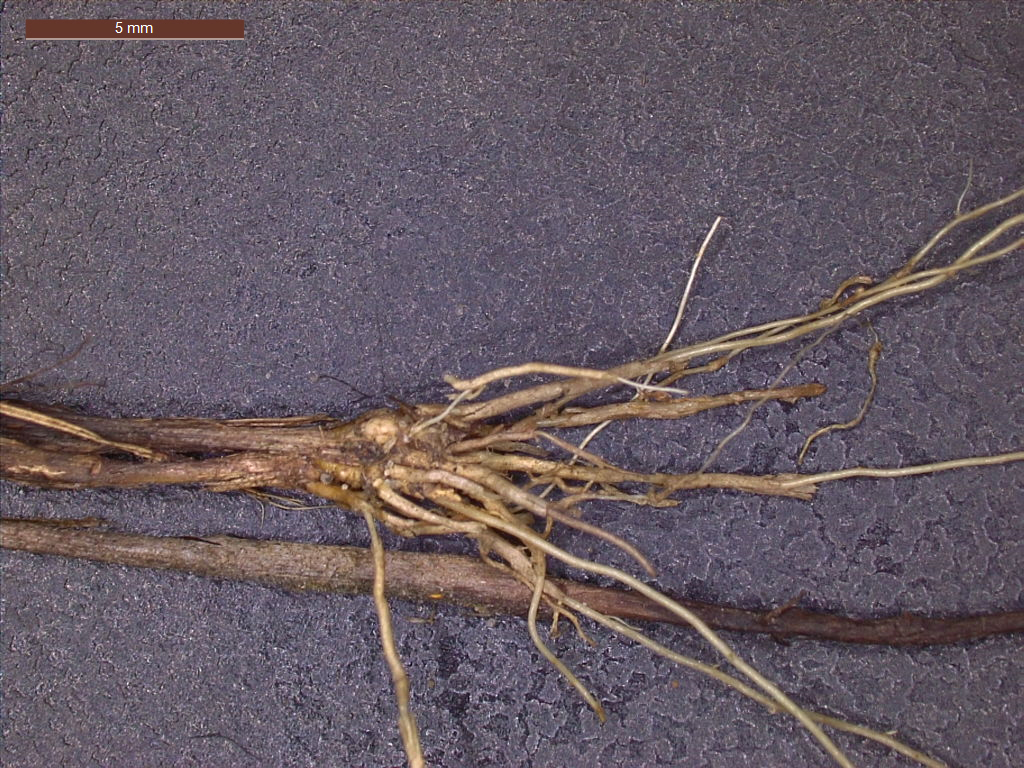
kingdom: Plantae
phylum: Tracheophyta
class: Liliopsida
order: Poales
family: Poaceae
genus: Aristida
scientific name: Aristida longespica
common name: Long-spiked triple-awned grass
